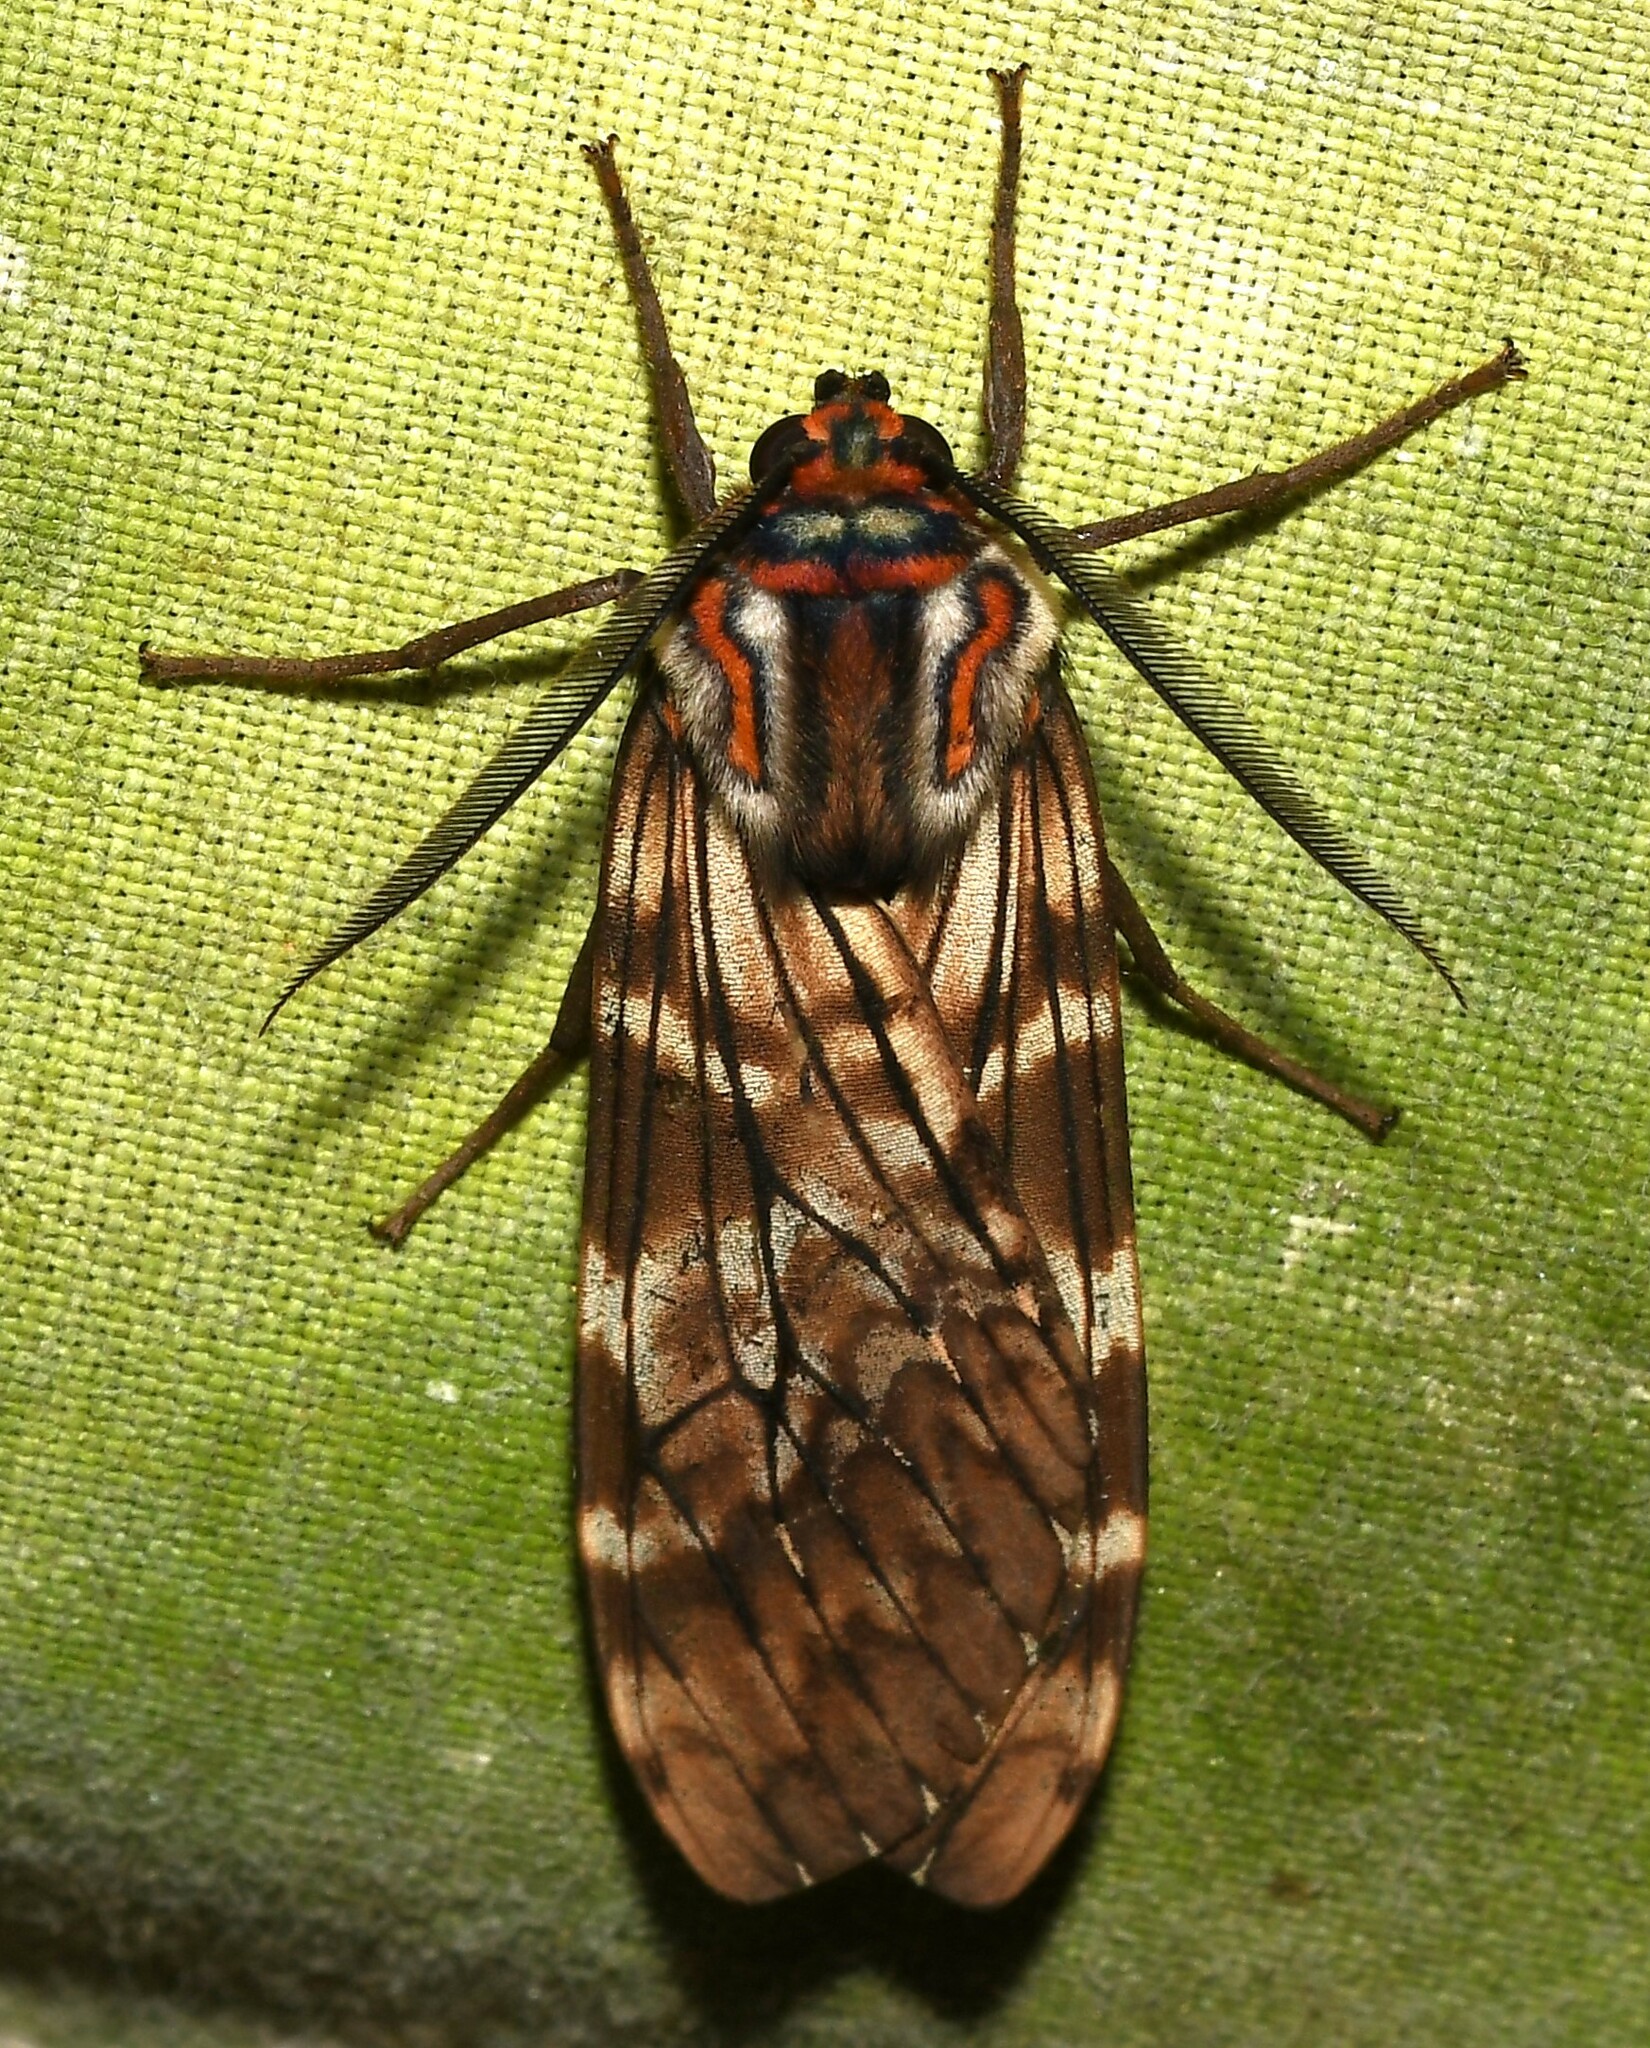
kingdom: Animalia
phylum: Arthropoda
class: Insecta
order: Lepidoptera
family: Erebidae
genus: Praemastus
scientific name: Praemastus minerva
